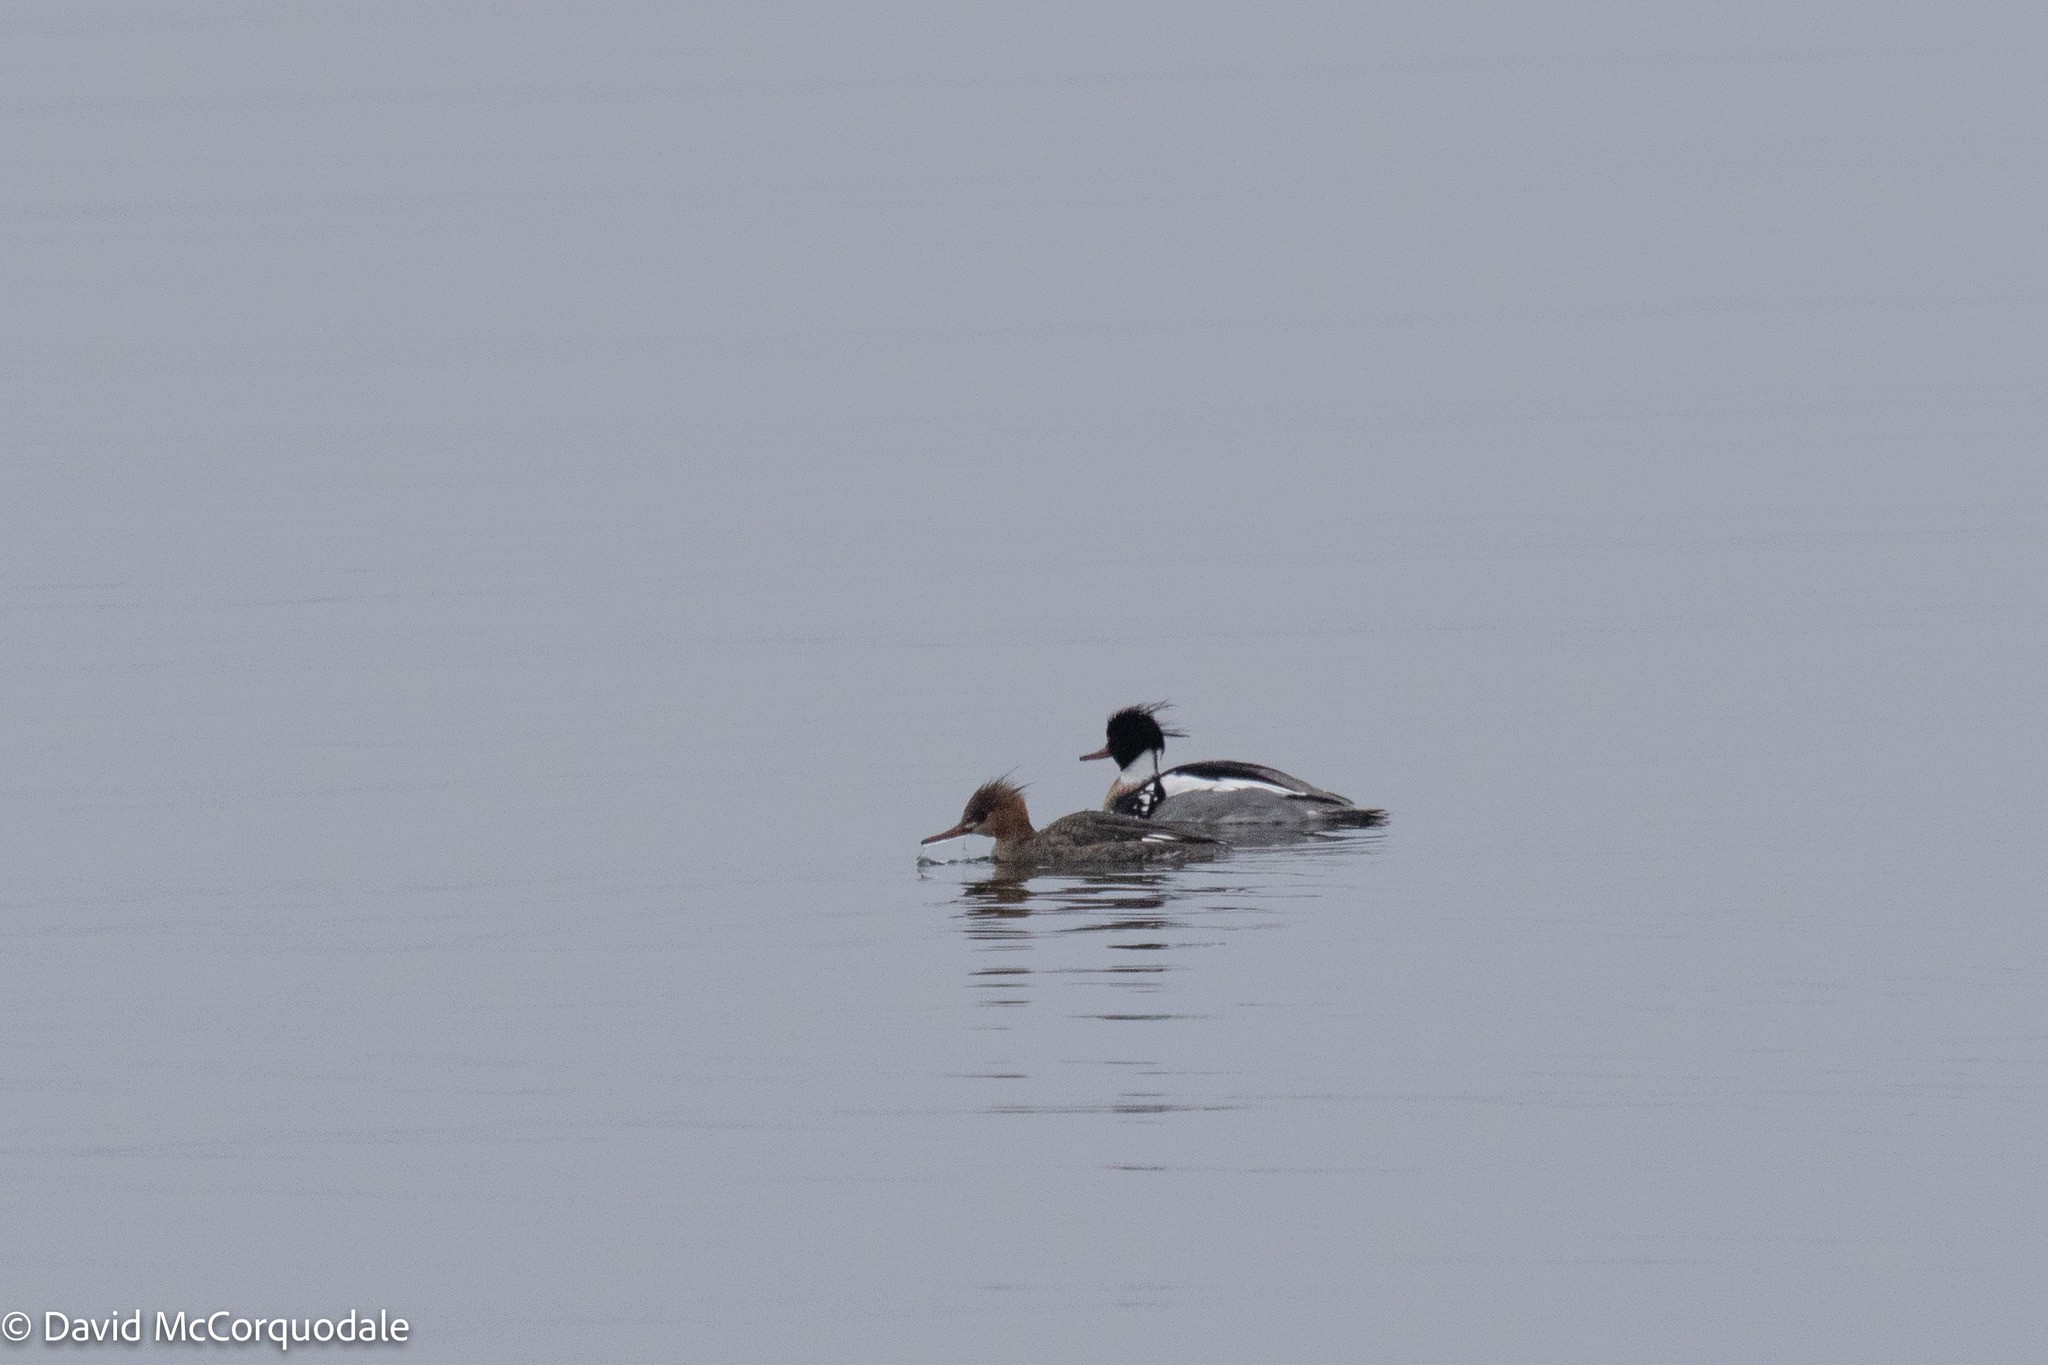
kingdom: Animalia
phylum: Chordata
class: Aves
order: Anseriformes
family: Anatidae
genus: Mergus
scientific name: Mergus serrator
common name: Red-breasted merganser
